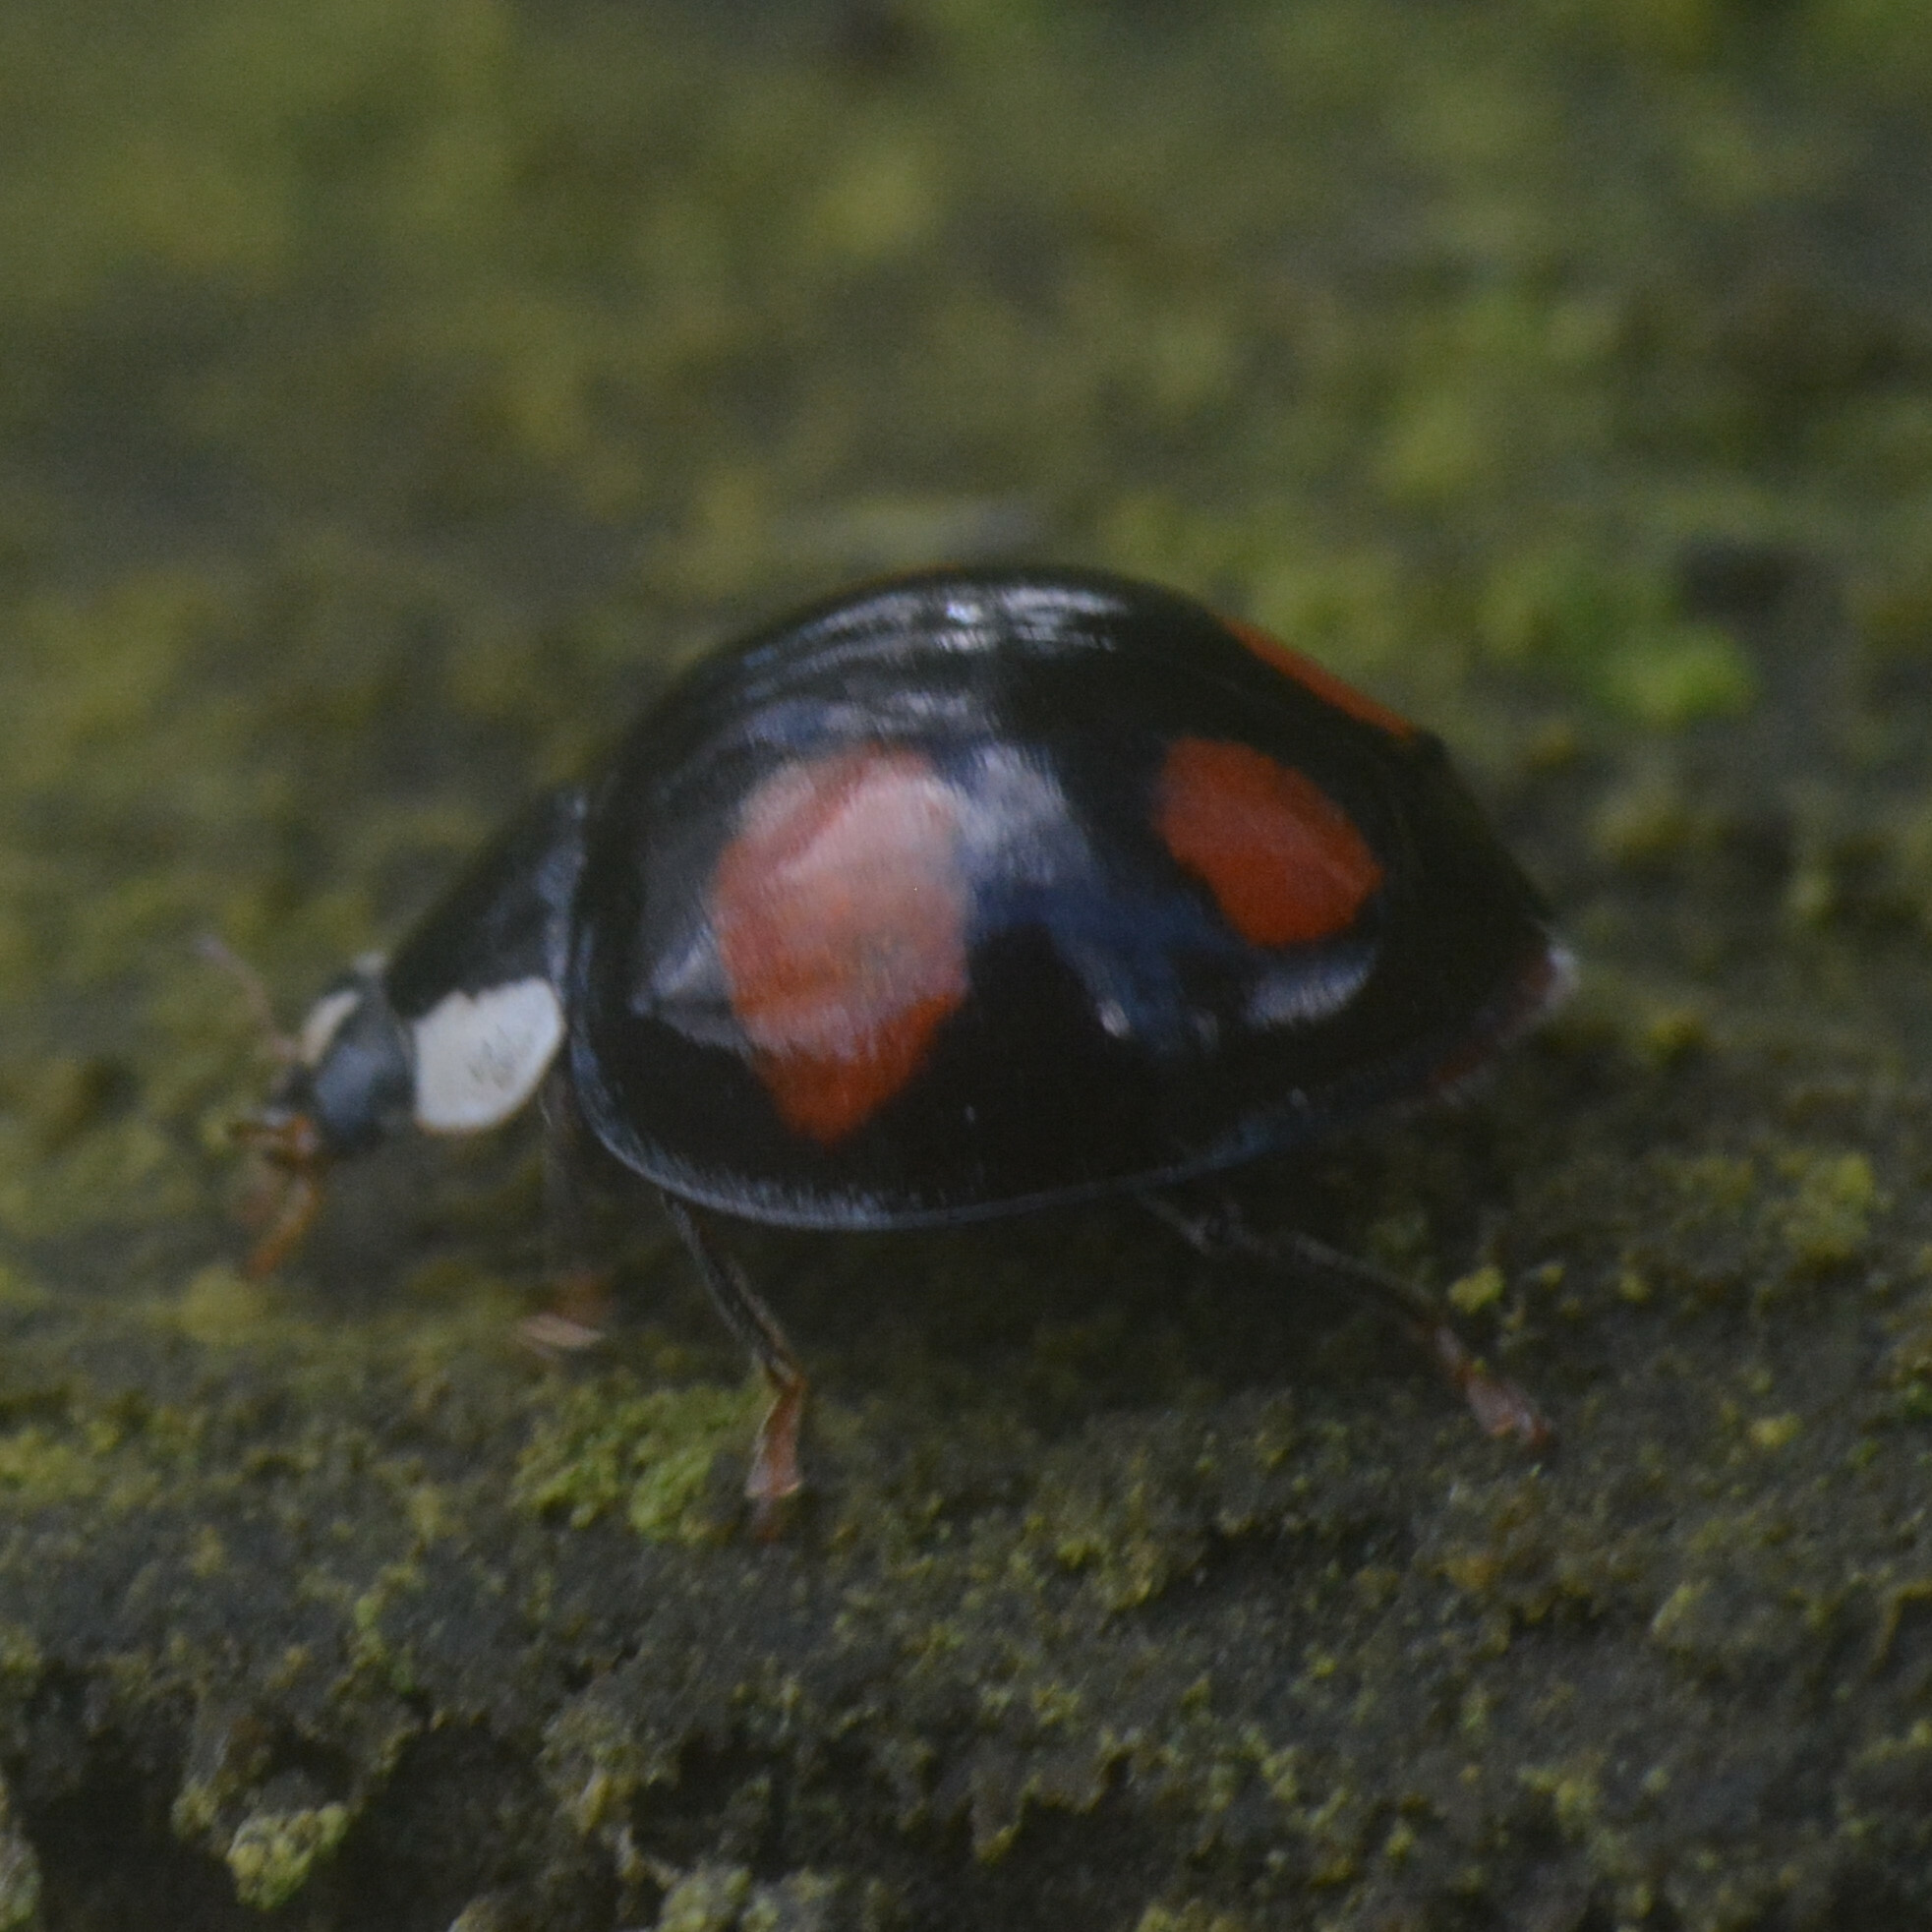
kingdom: Animalia
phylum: Arthropoda
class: Insecta
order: Coleoptera
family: Coccinellidae
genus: Harmonia
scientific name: Harmonia axyridis
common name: Harlequin ladybird
